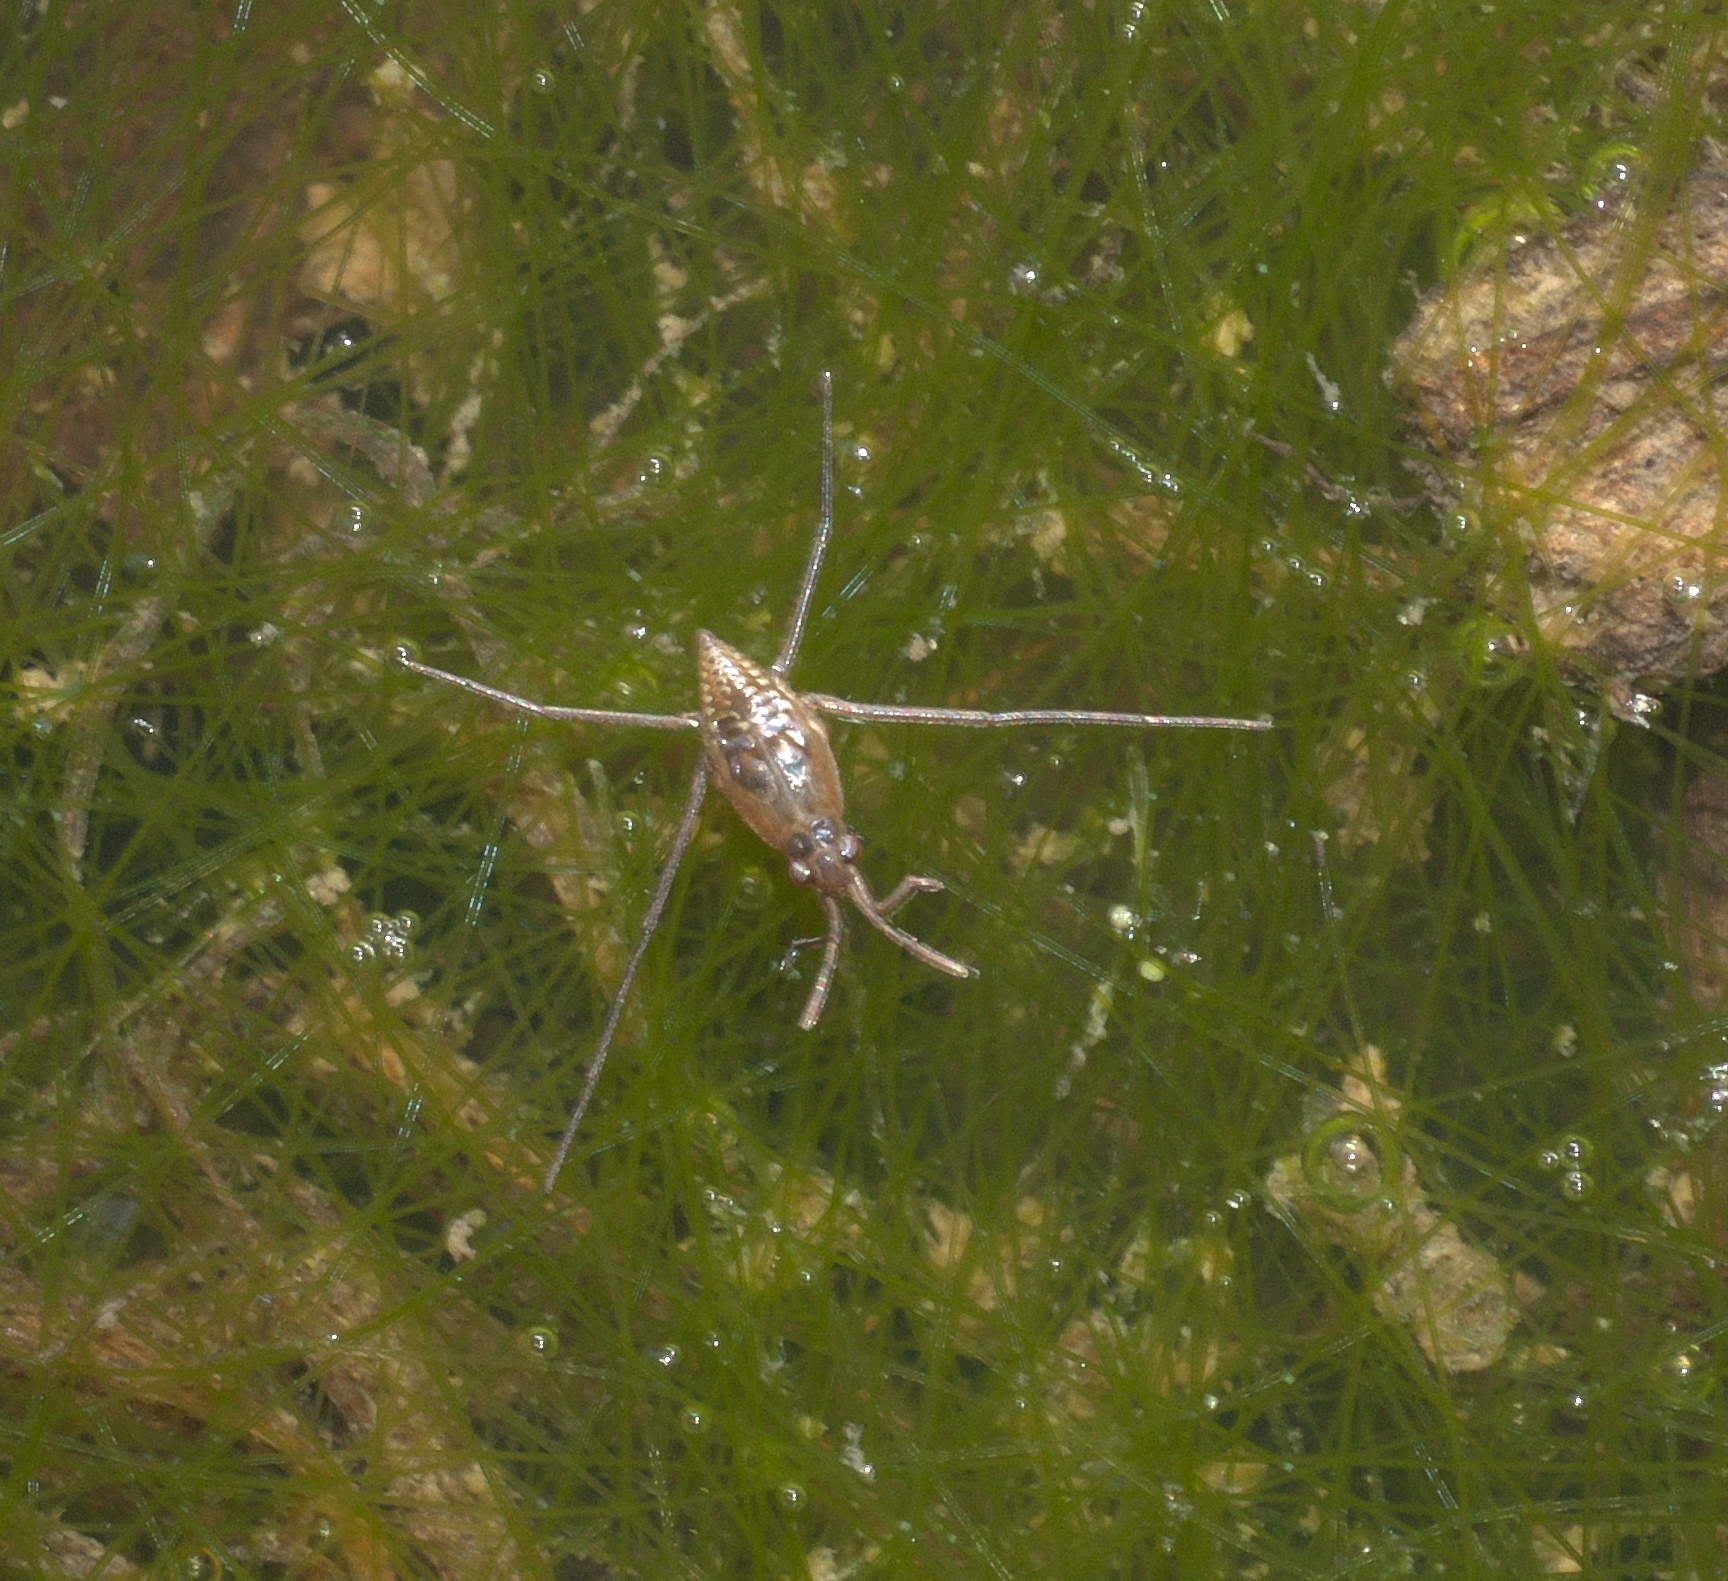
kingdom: Animalia
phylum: Arthropoda
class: Insecta
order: Hemiptera
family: Gerridae
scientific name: Gerridae
